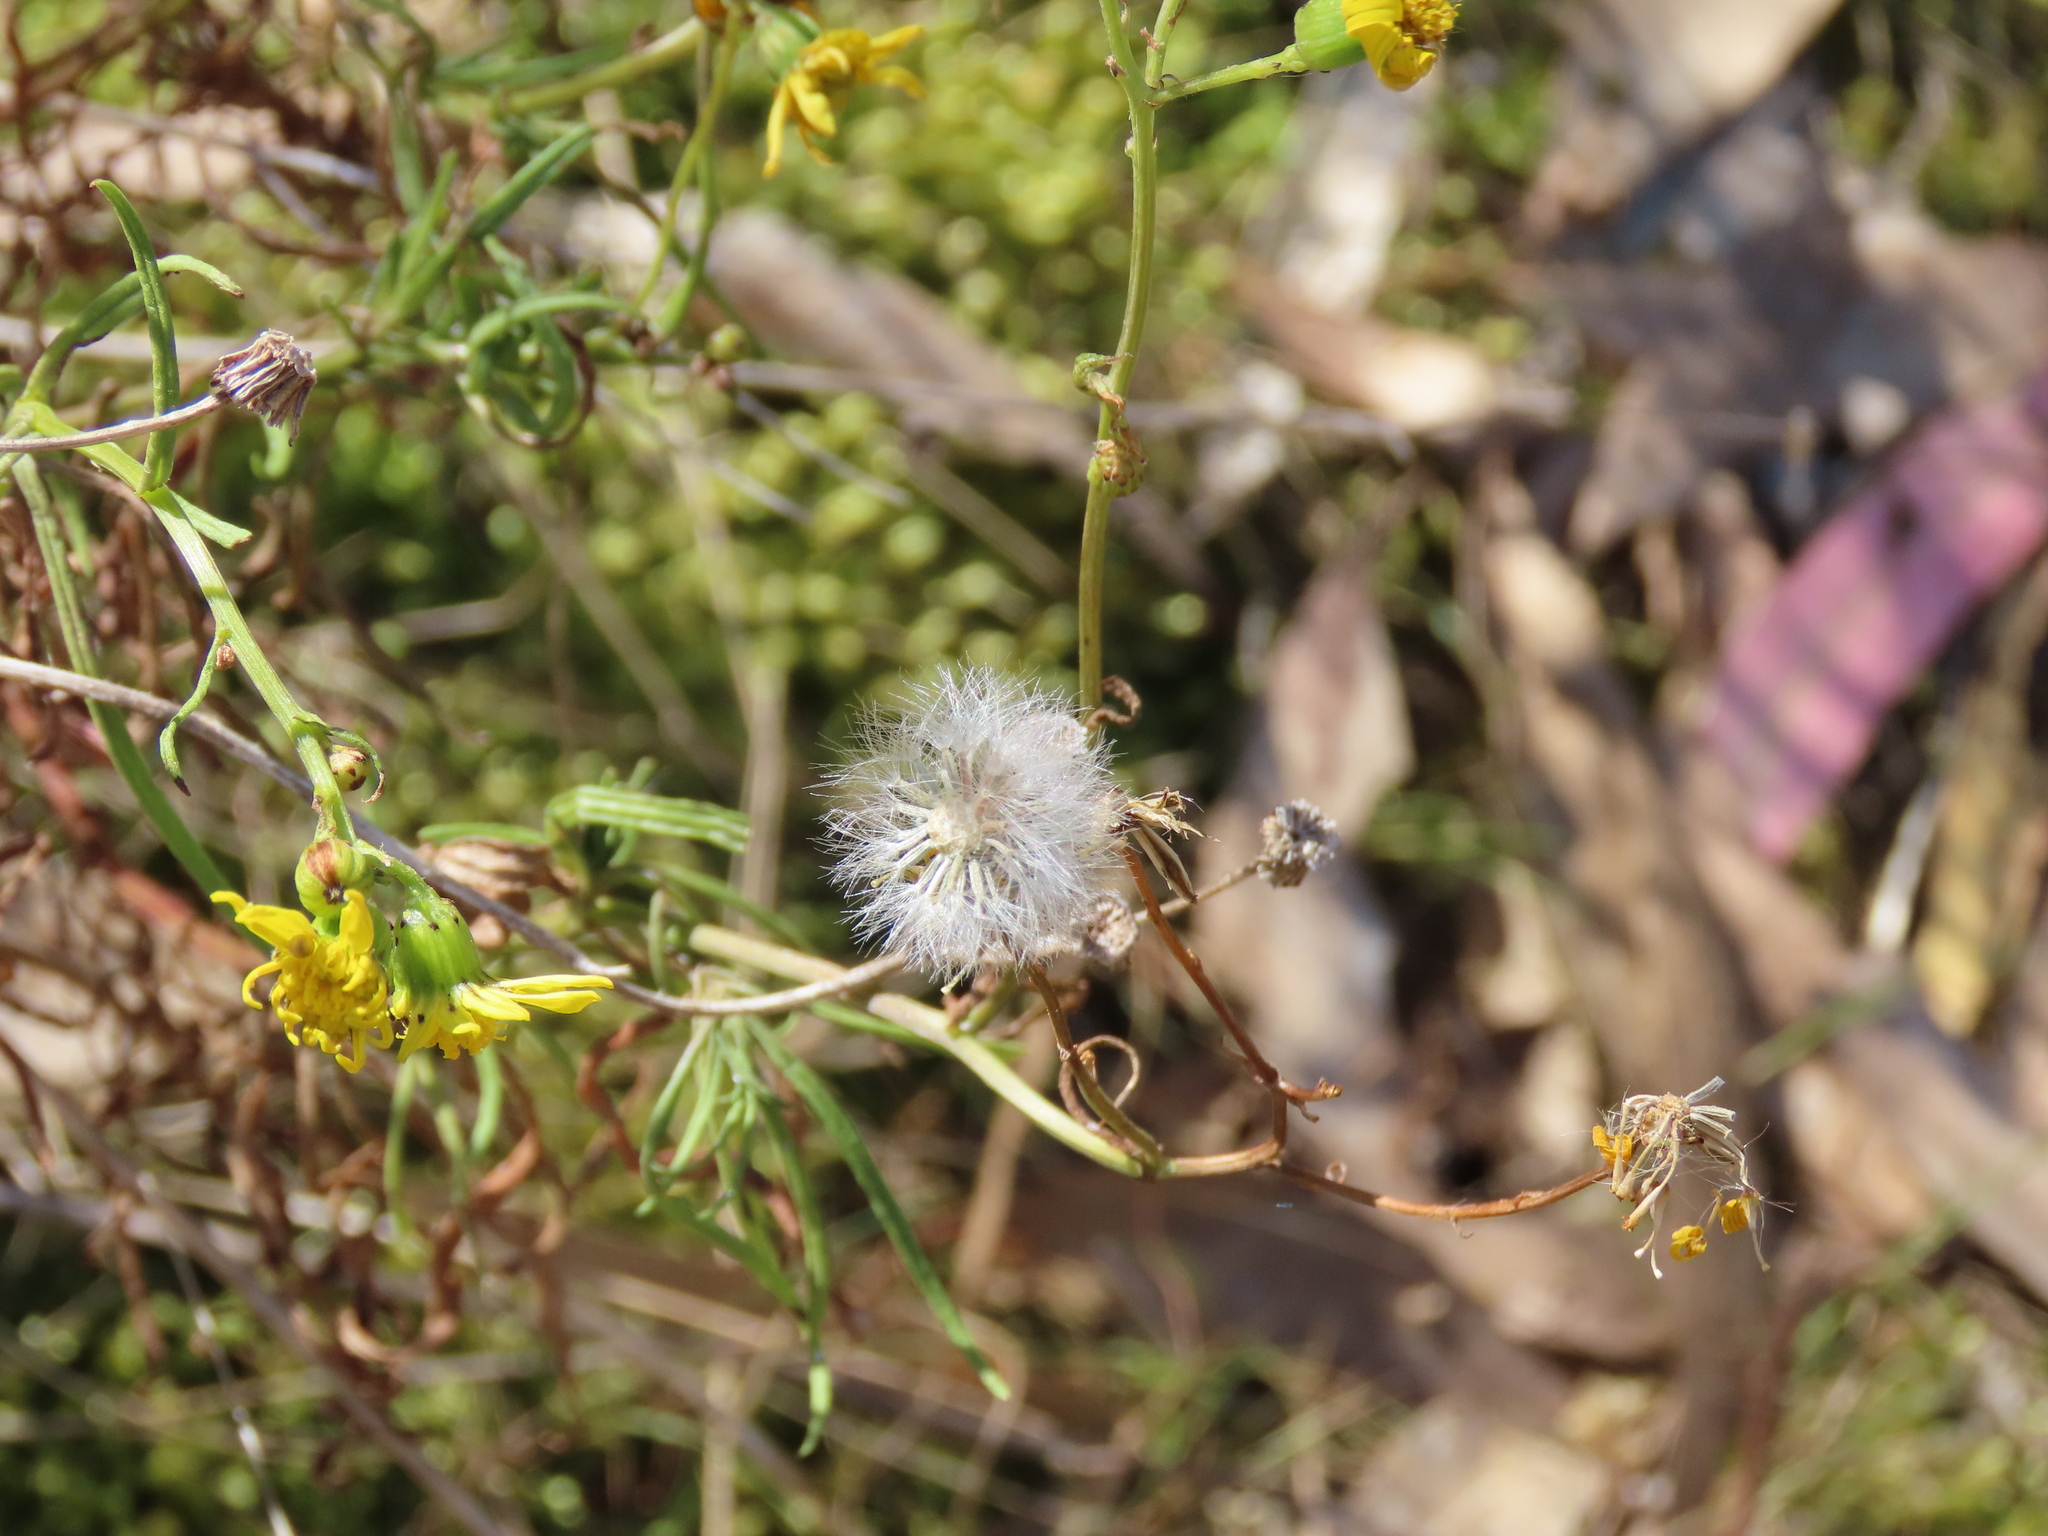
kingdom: Plantae
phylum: Tracheophyta
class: Magnoliopsida
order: Asterales
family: Asteraceae
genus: Senecio
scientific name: Senecio linearifolius
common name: Fireweed groundsel
